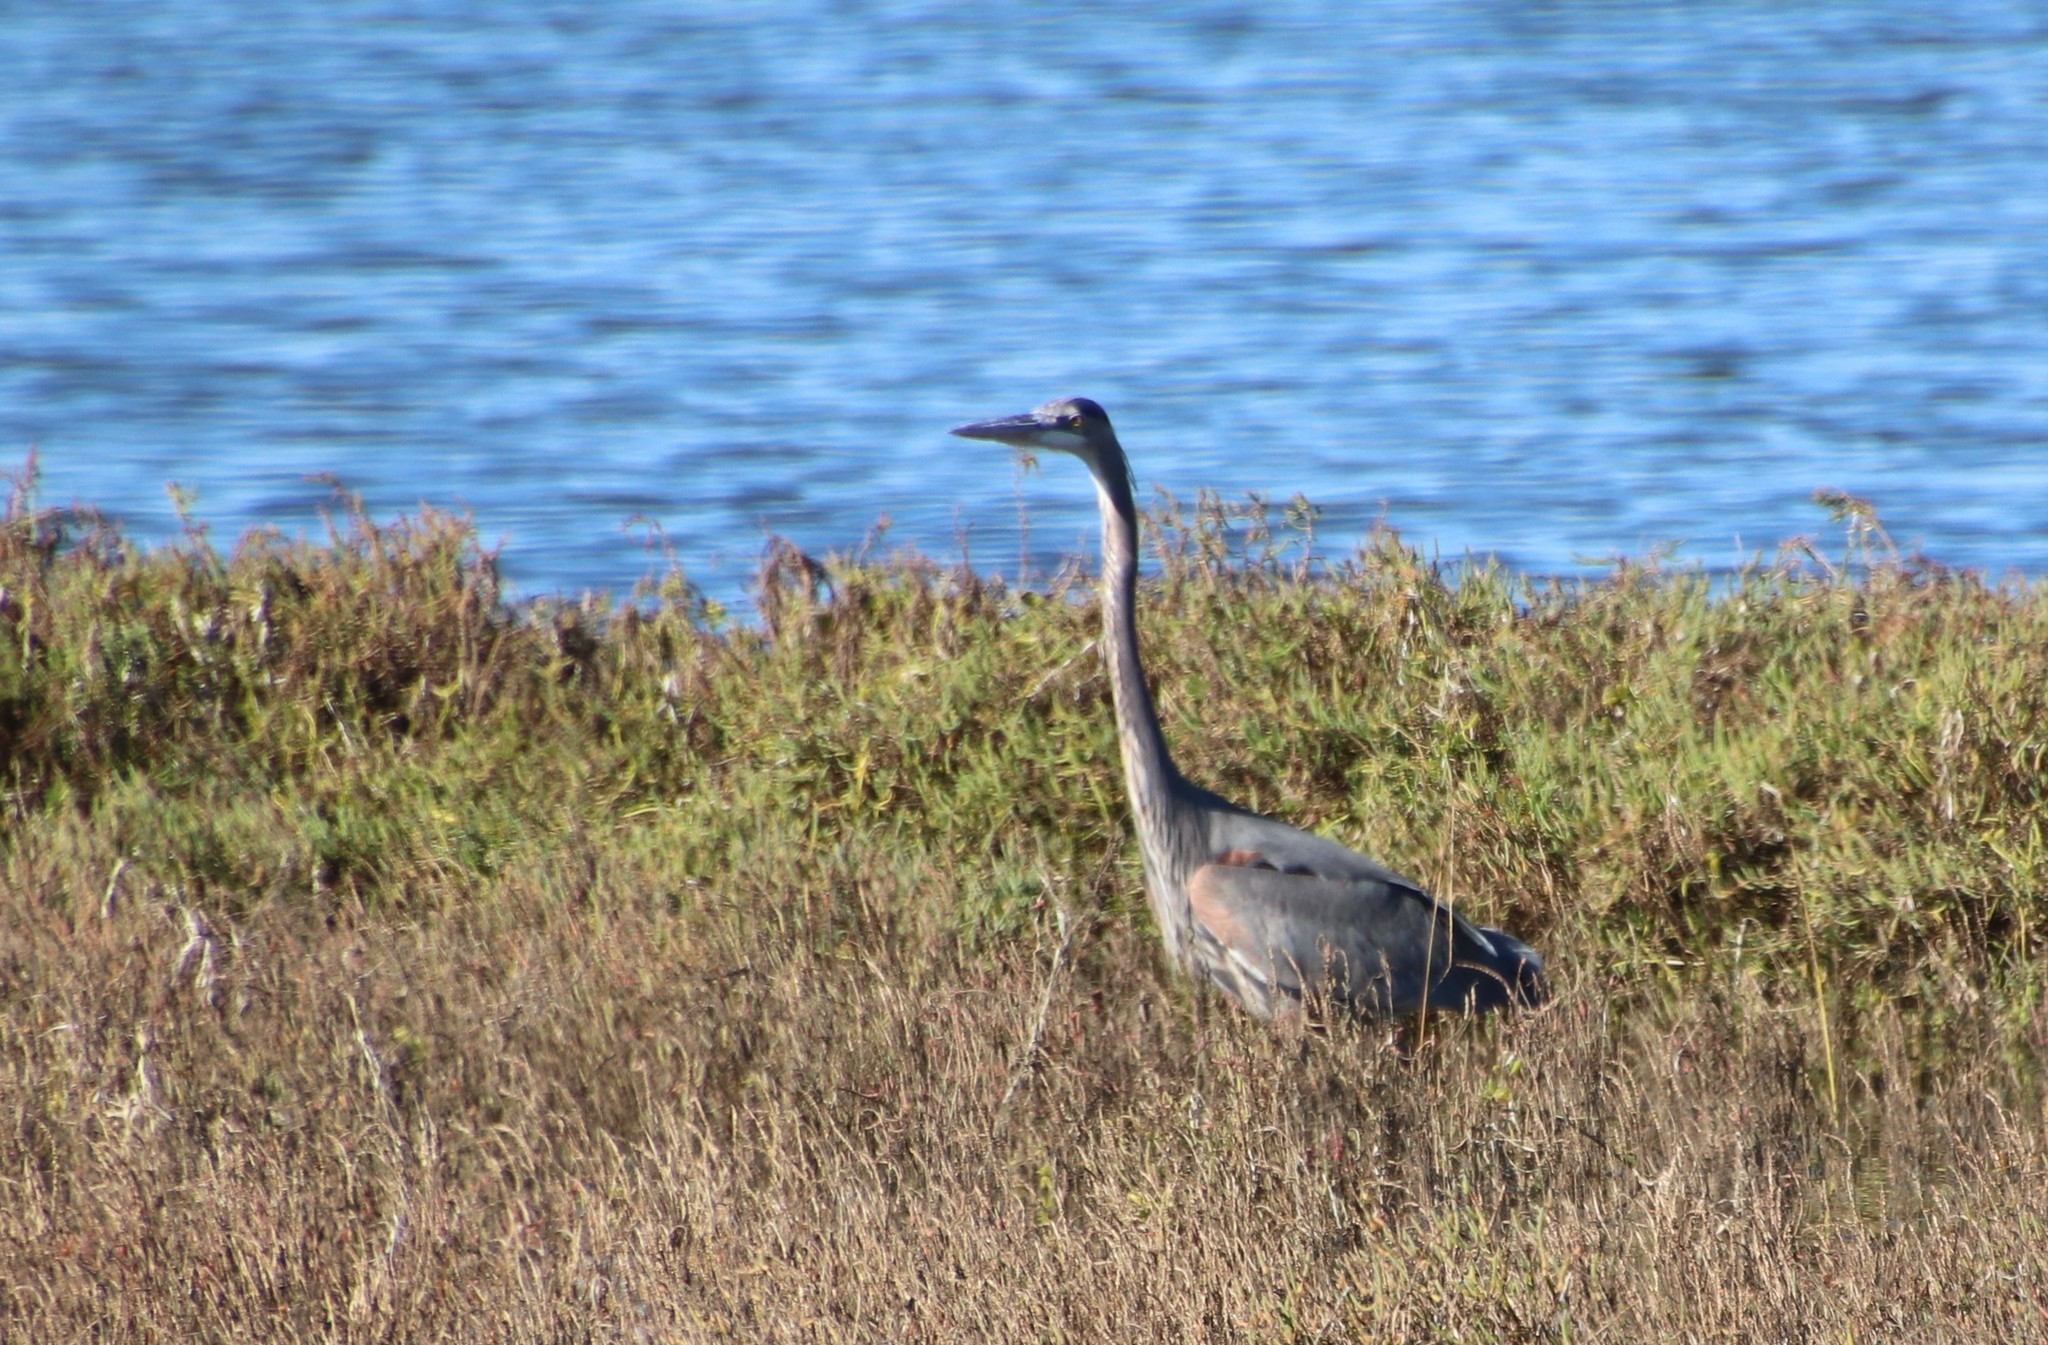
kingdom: Animalia
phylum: Chordata
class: Aves
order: Pelecaniformes
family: Ardeidae
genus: Ardea
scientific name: Ardea herodias
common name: Great blue heron
